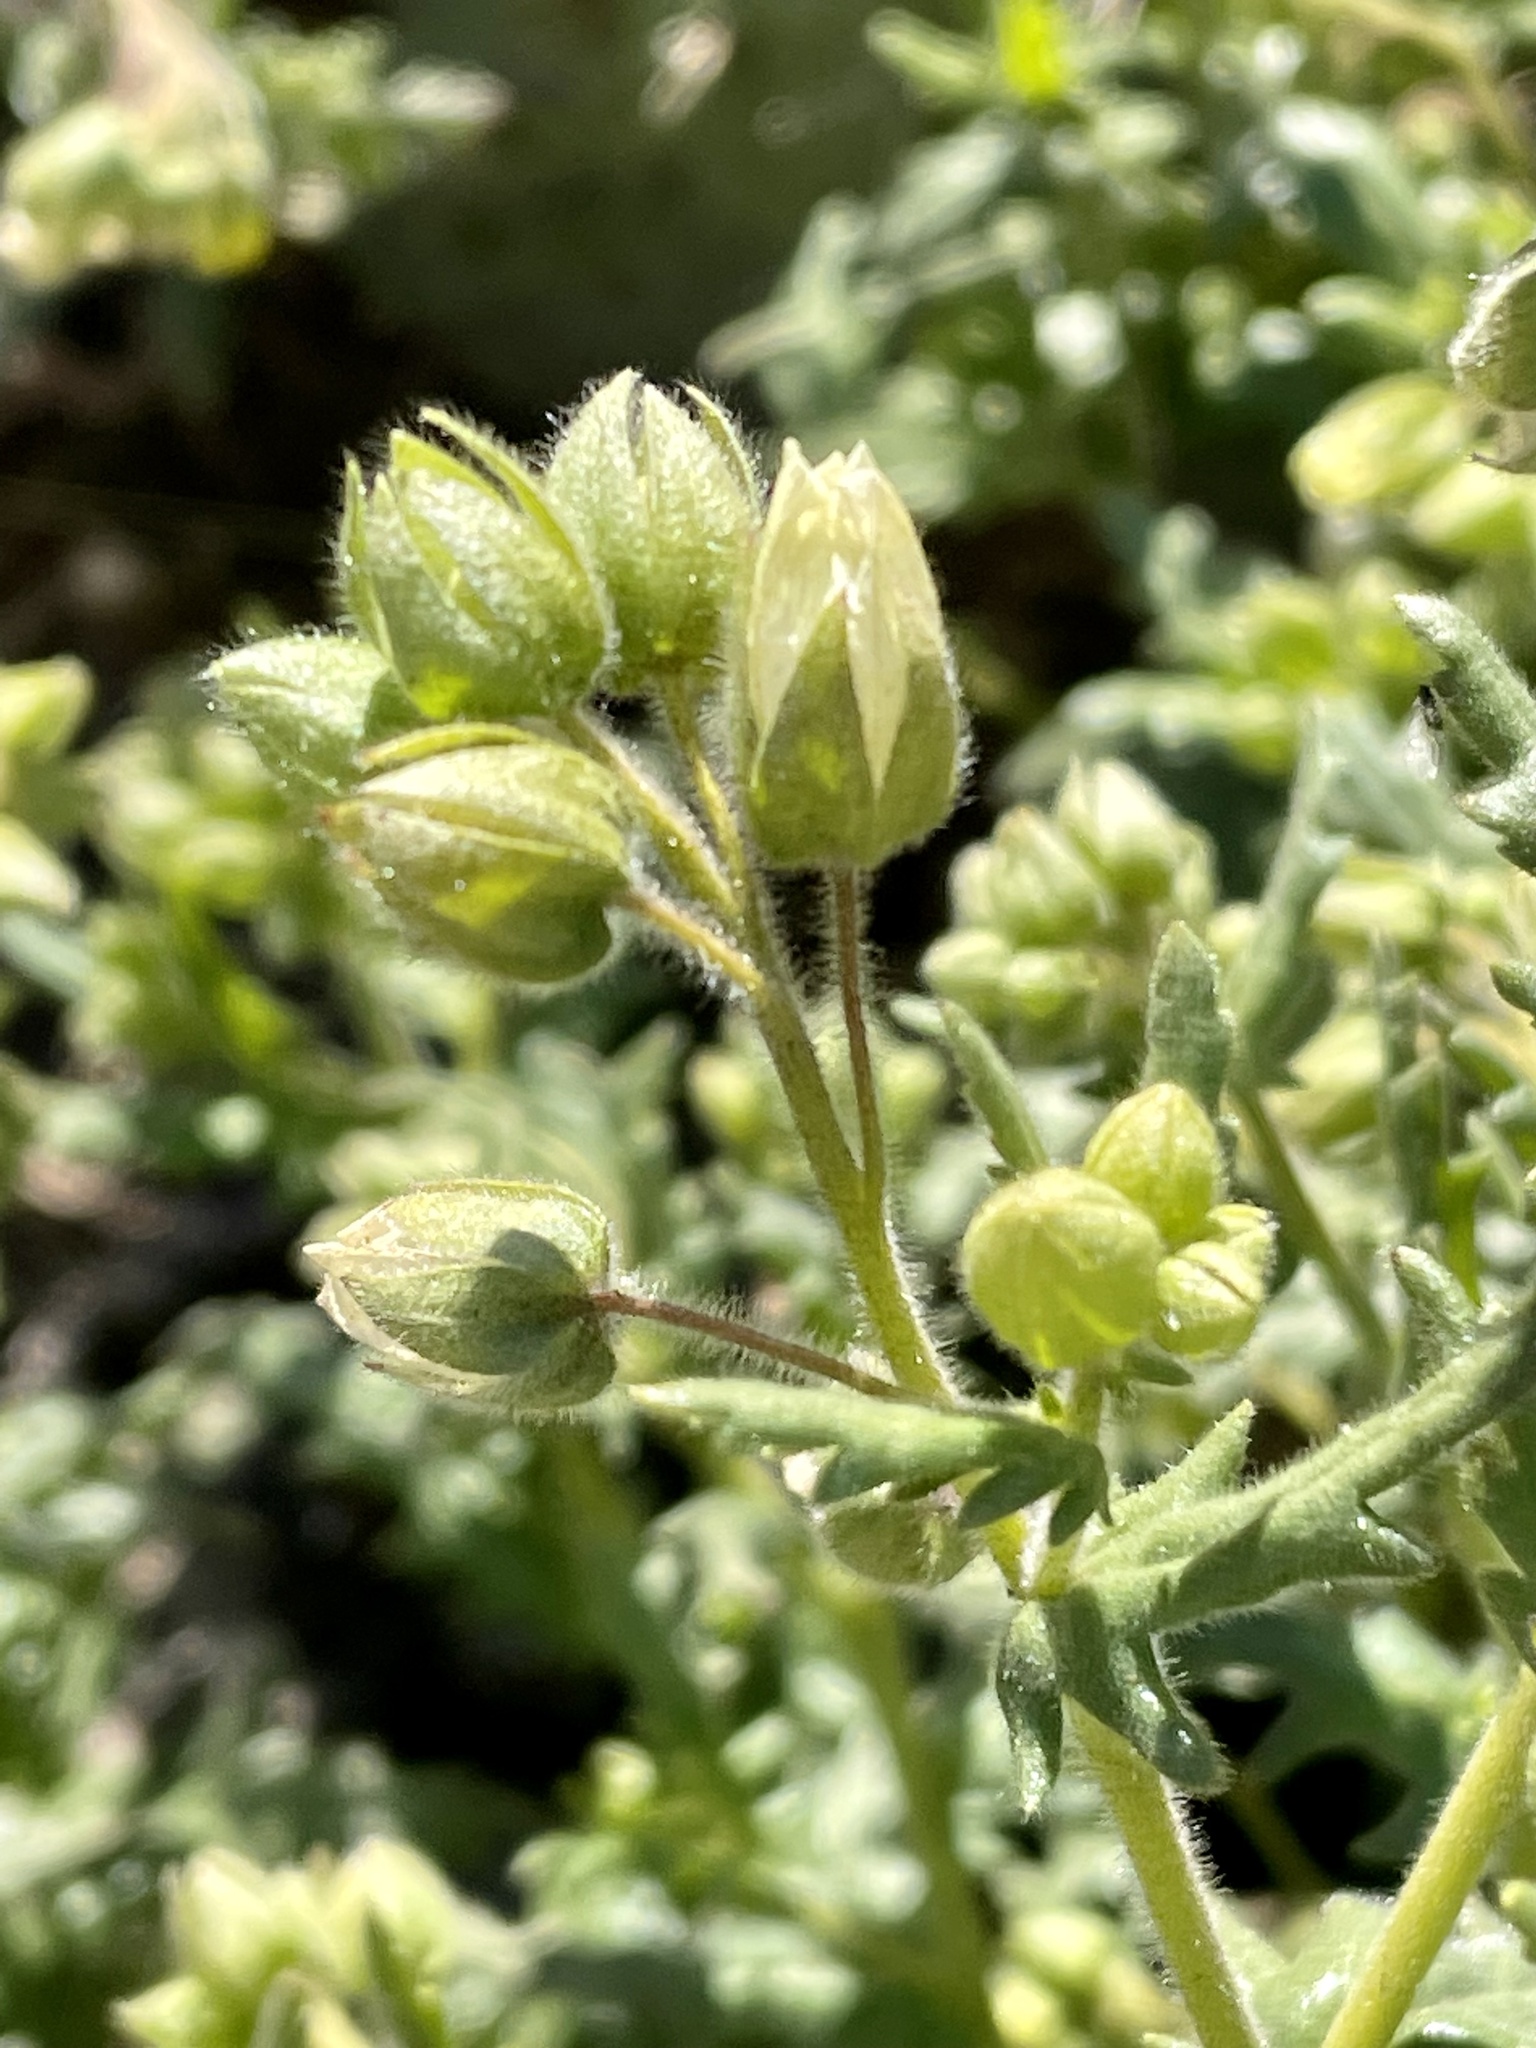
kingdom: Plantae
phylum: Tracheophyta
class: Magnoliopsida
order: Boraginales
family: Hydrophyllaceae
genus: Emmenanthe
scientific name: Emmenanthe penduliflora
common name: Whispering-bells
